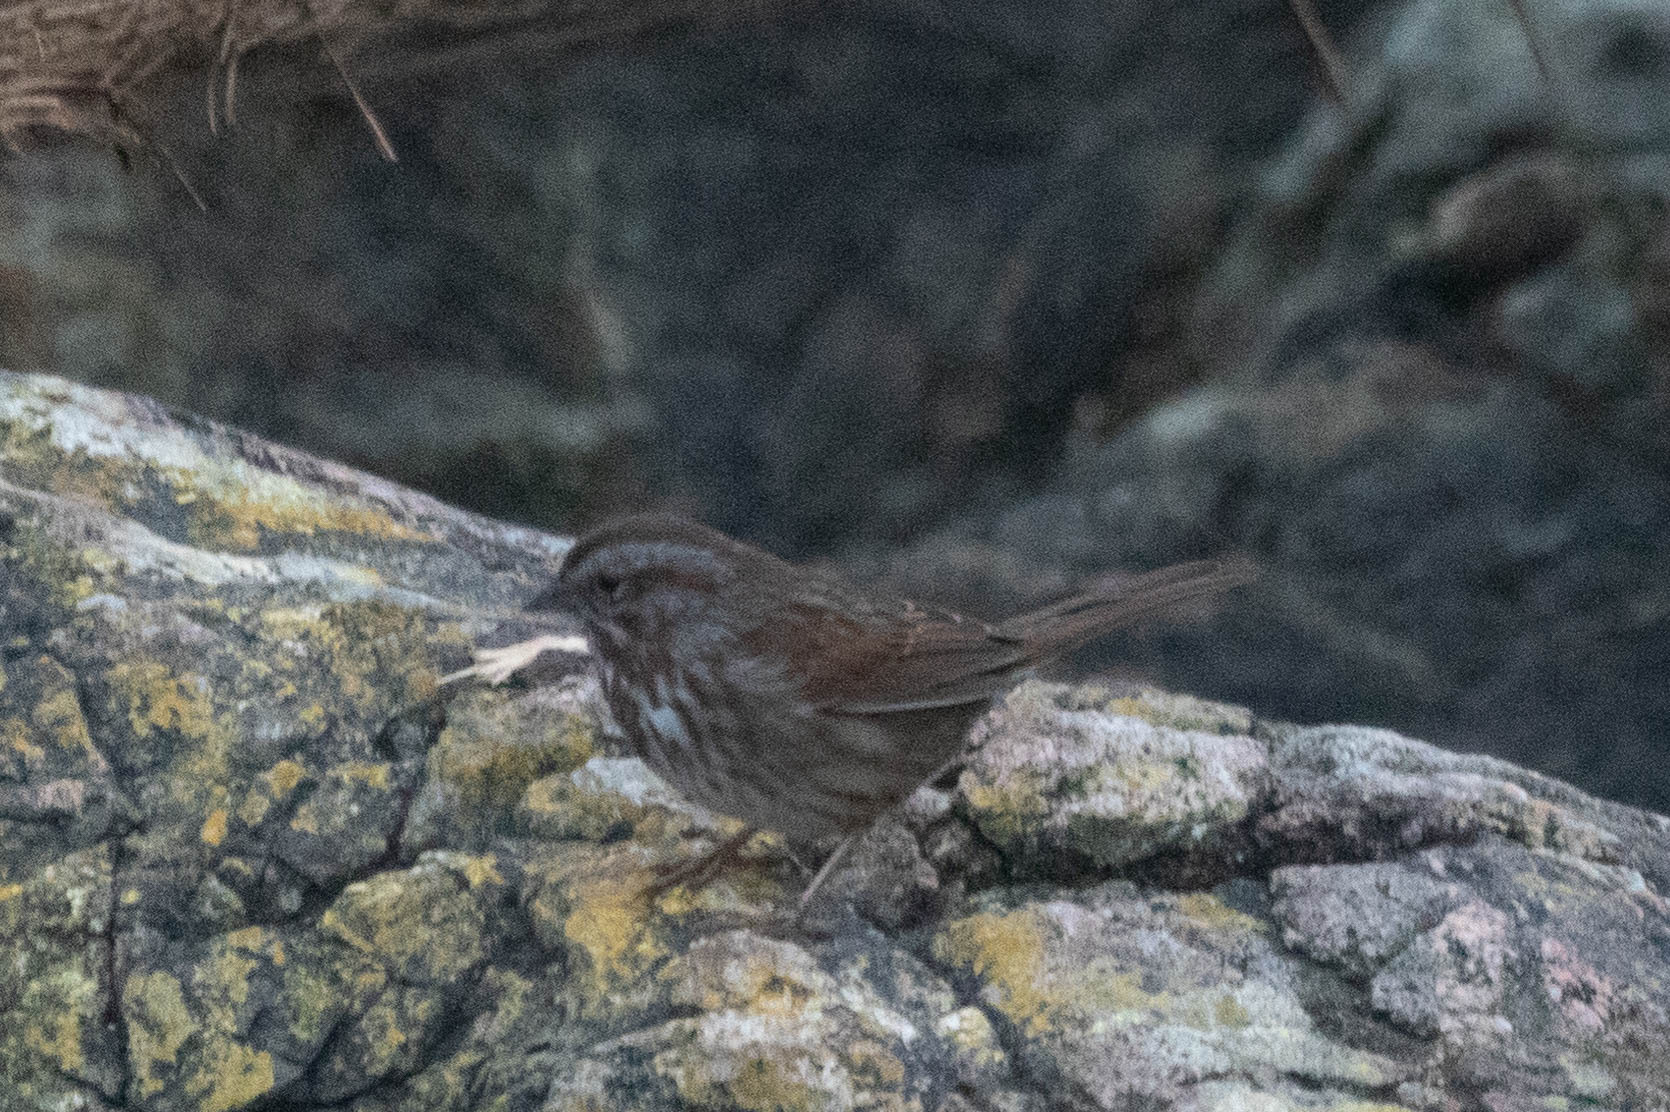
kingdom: Animalia
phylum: Chordata
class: Aves
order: Passeriformes
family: Passerellidae
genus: Melospiza
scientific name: Melospiza melodia
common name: Song sparrow
